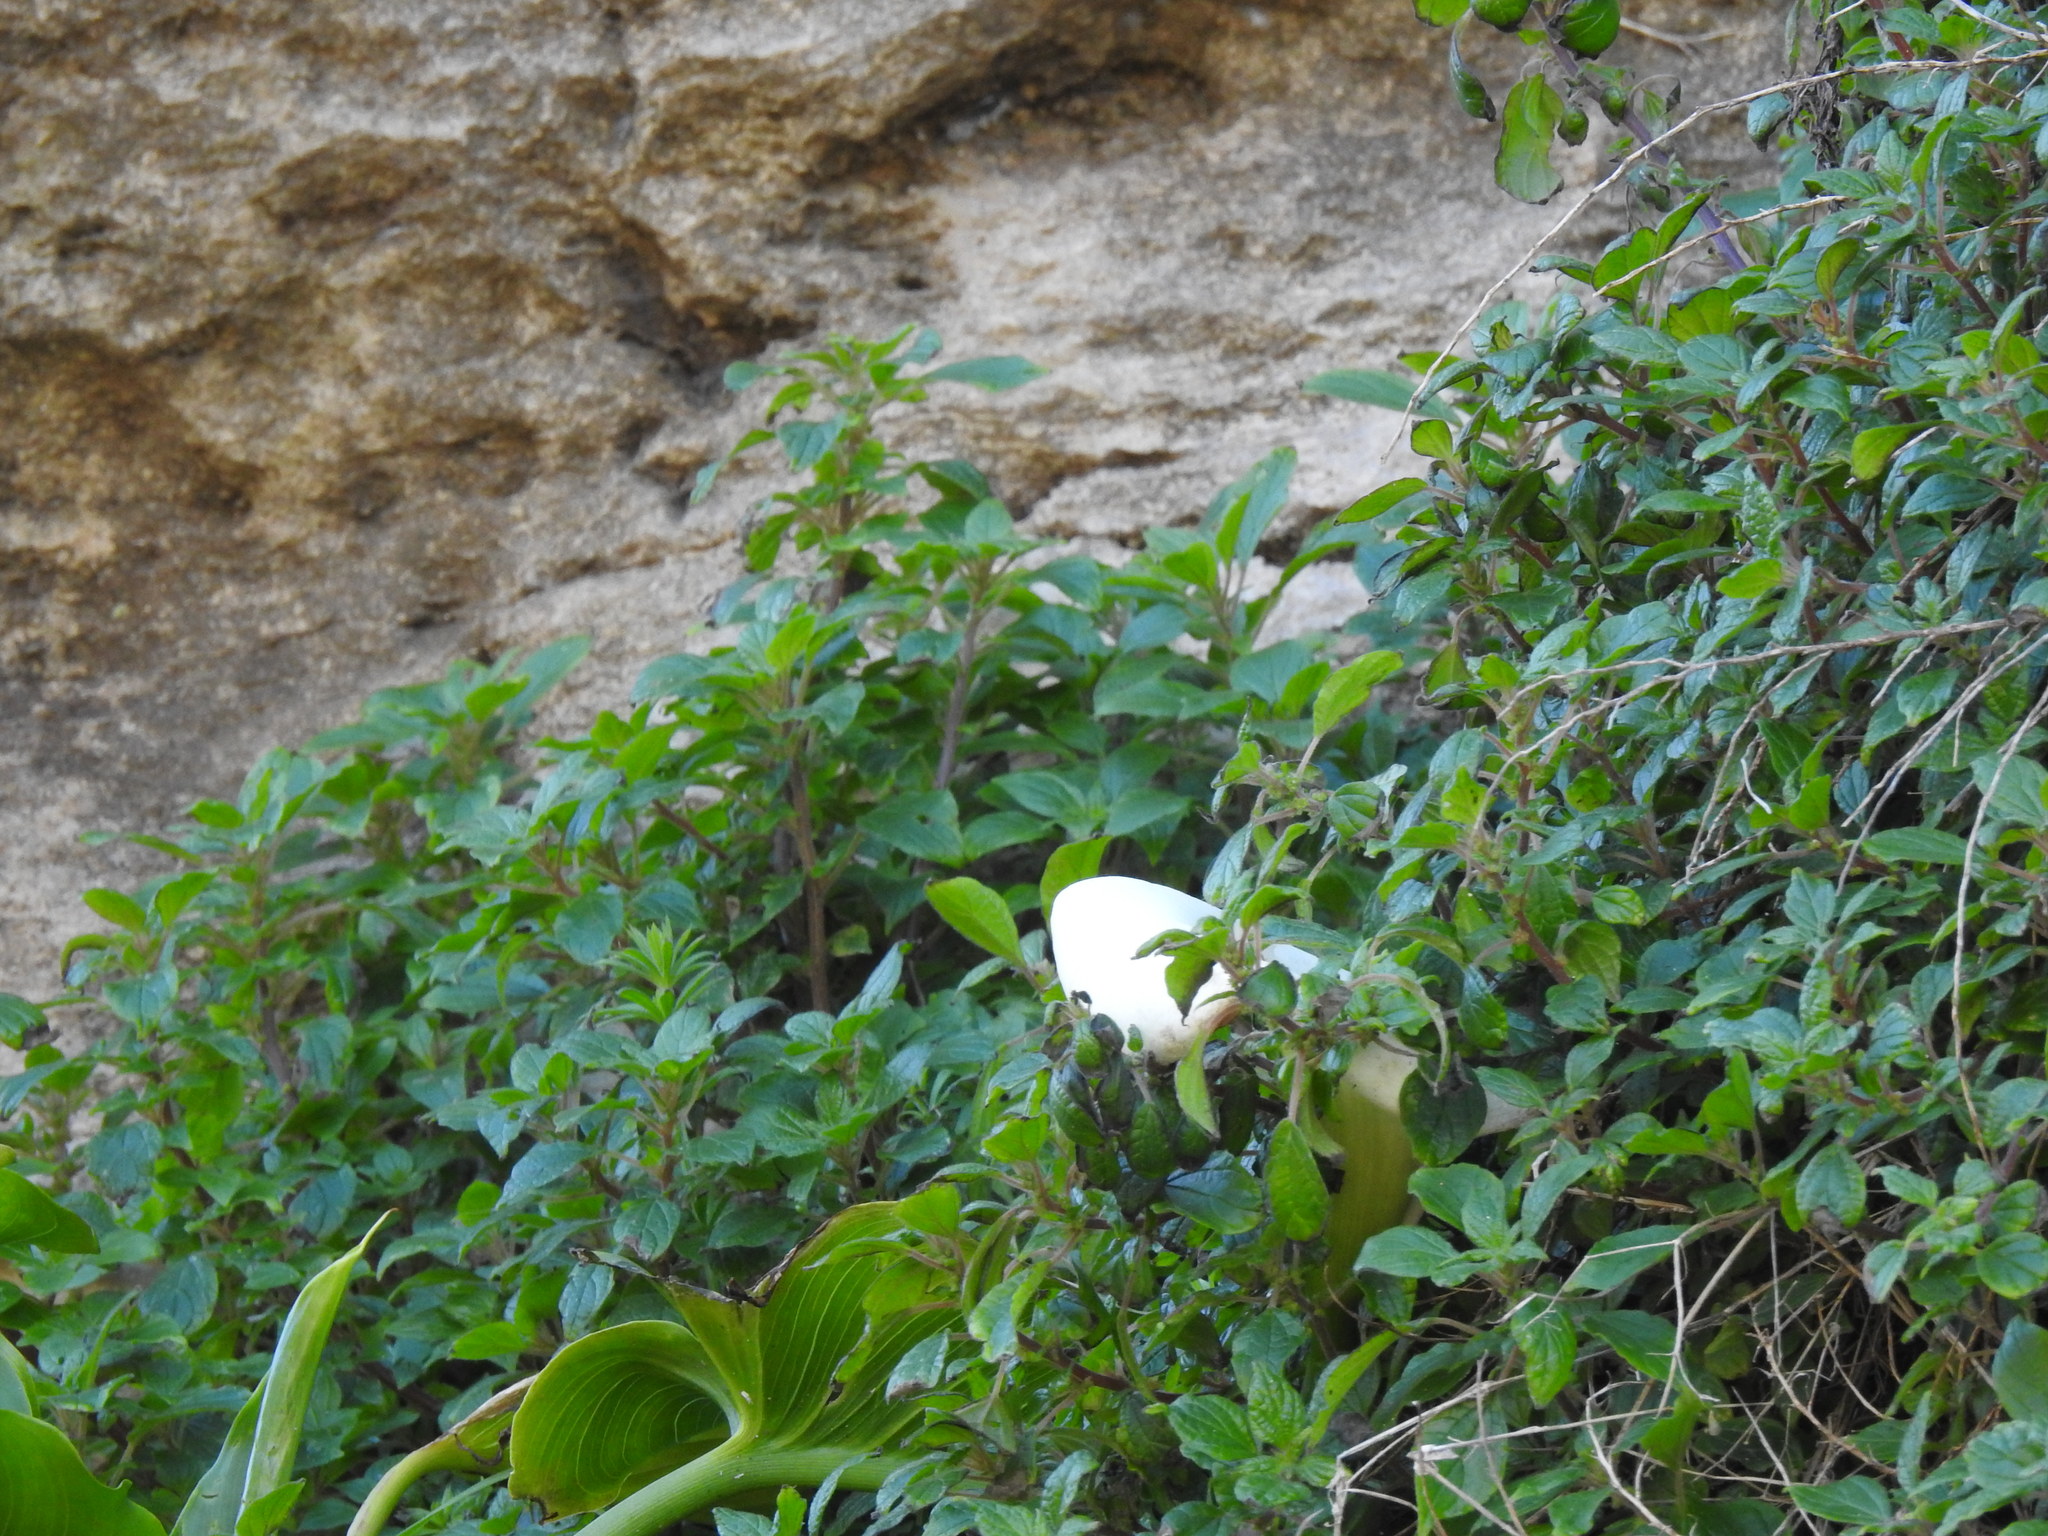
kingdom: Plantae
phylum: Tracheophyta
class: Magnoliopsida
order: Rosales
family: Urticaceae
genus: Parietaria
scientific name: Parietaria judaica
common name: Pellitory-of-the-wall
